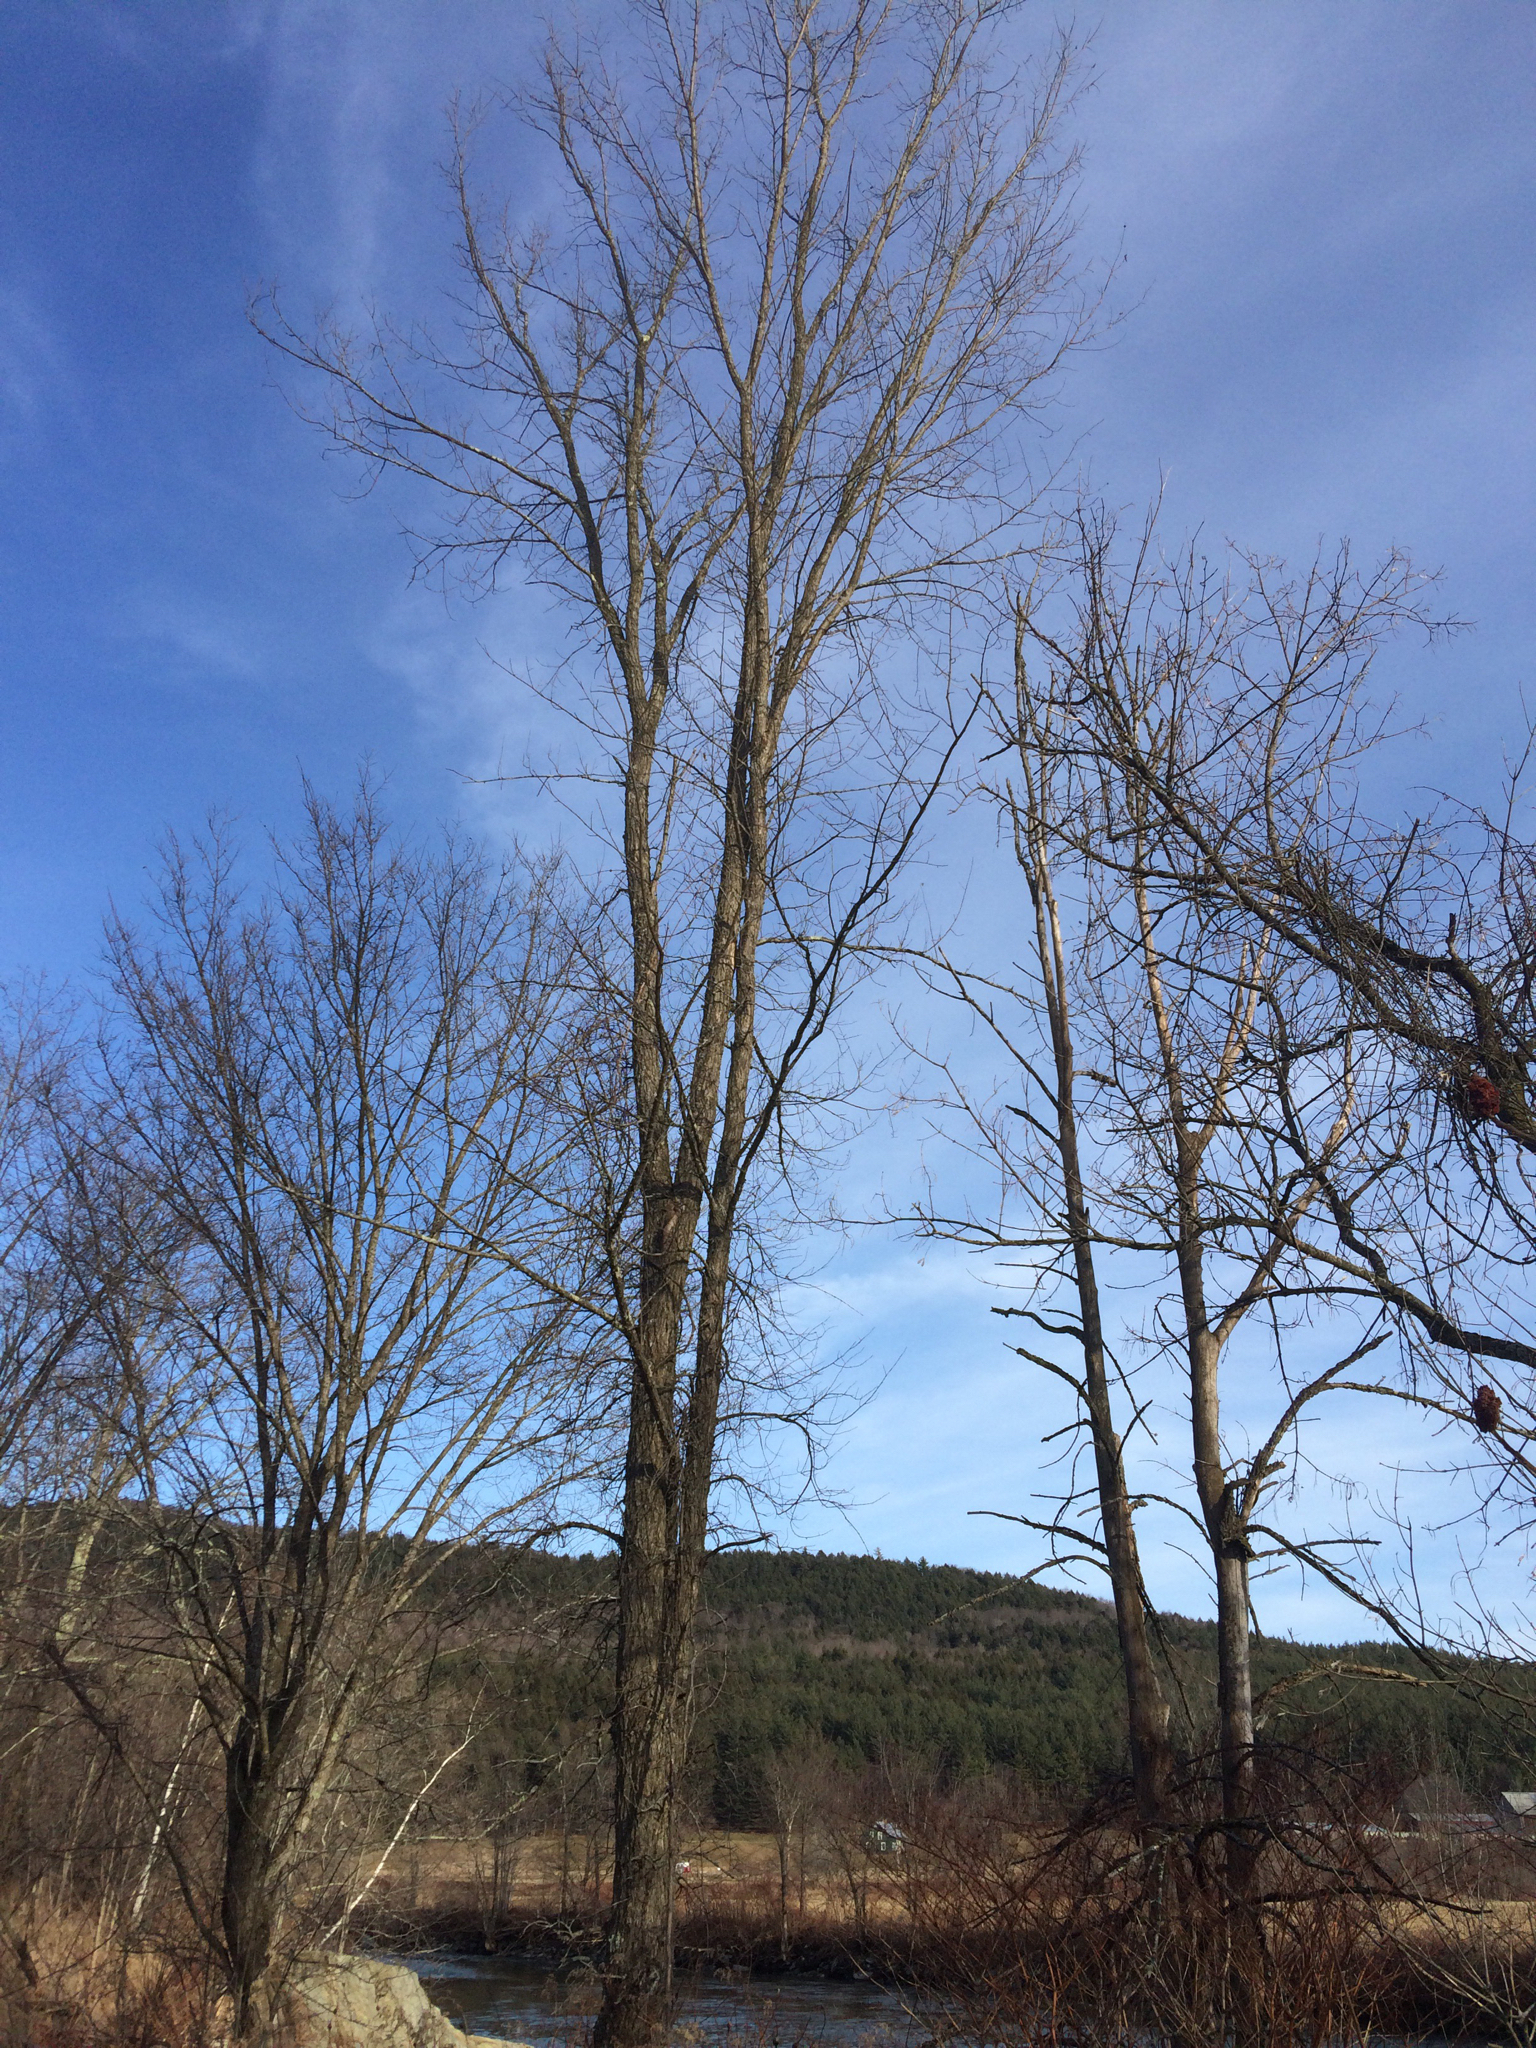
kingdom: Plantae
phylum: Tracheophyta
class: Magnoliopsida
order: Rosales
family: Ulmaceae
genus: Ulmus
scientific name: Ulmus americana
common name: American elm
